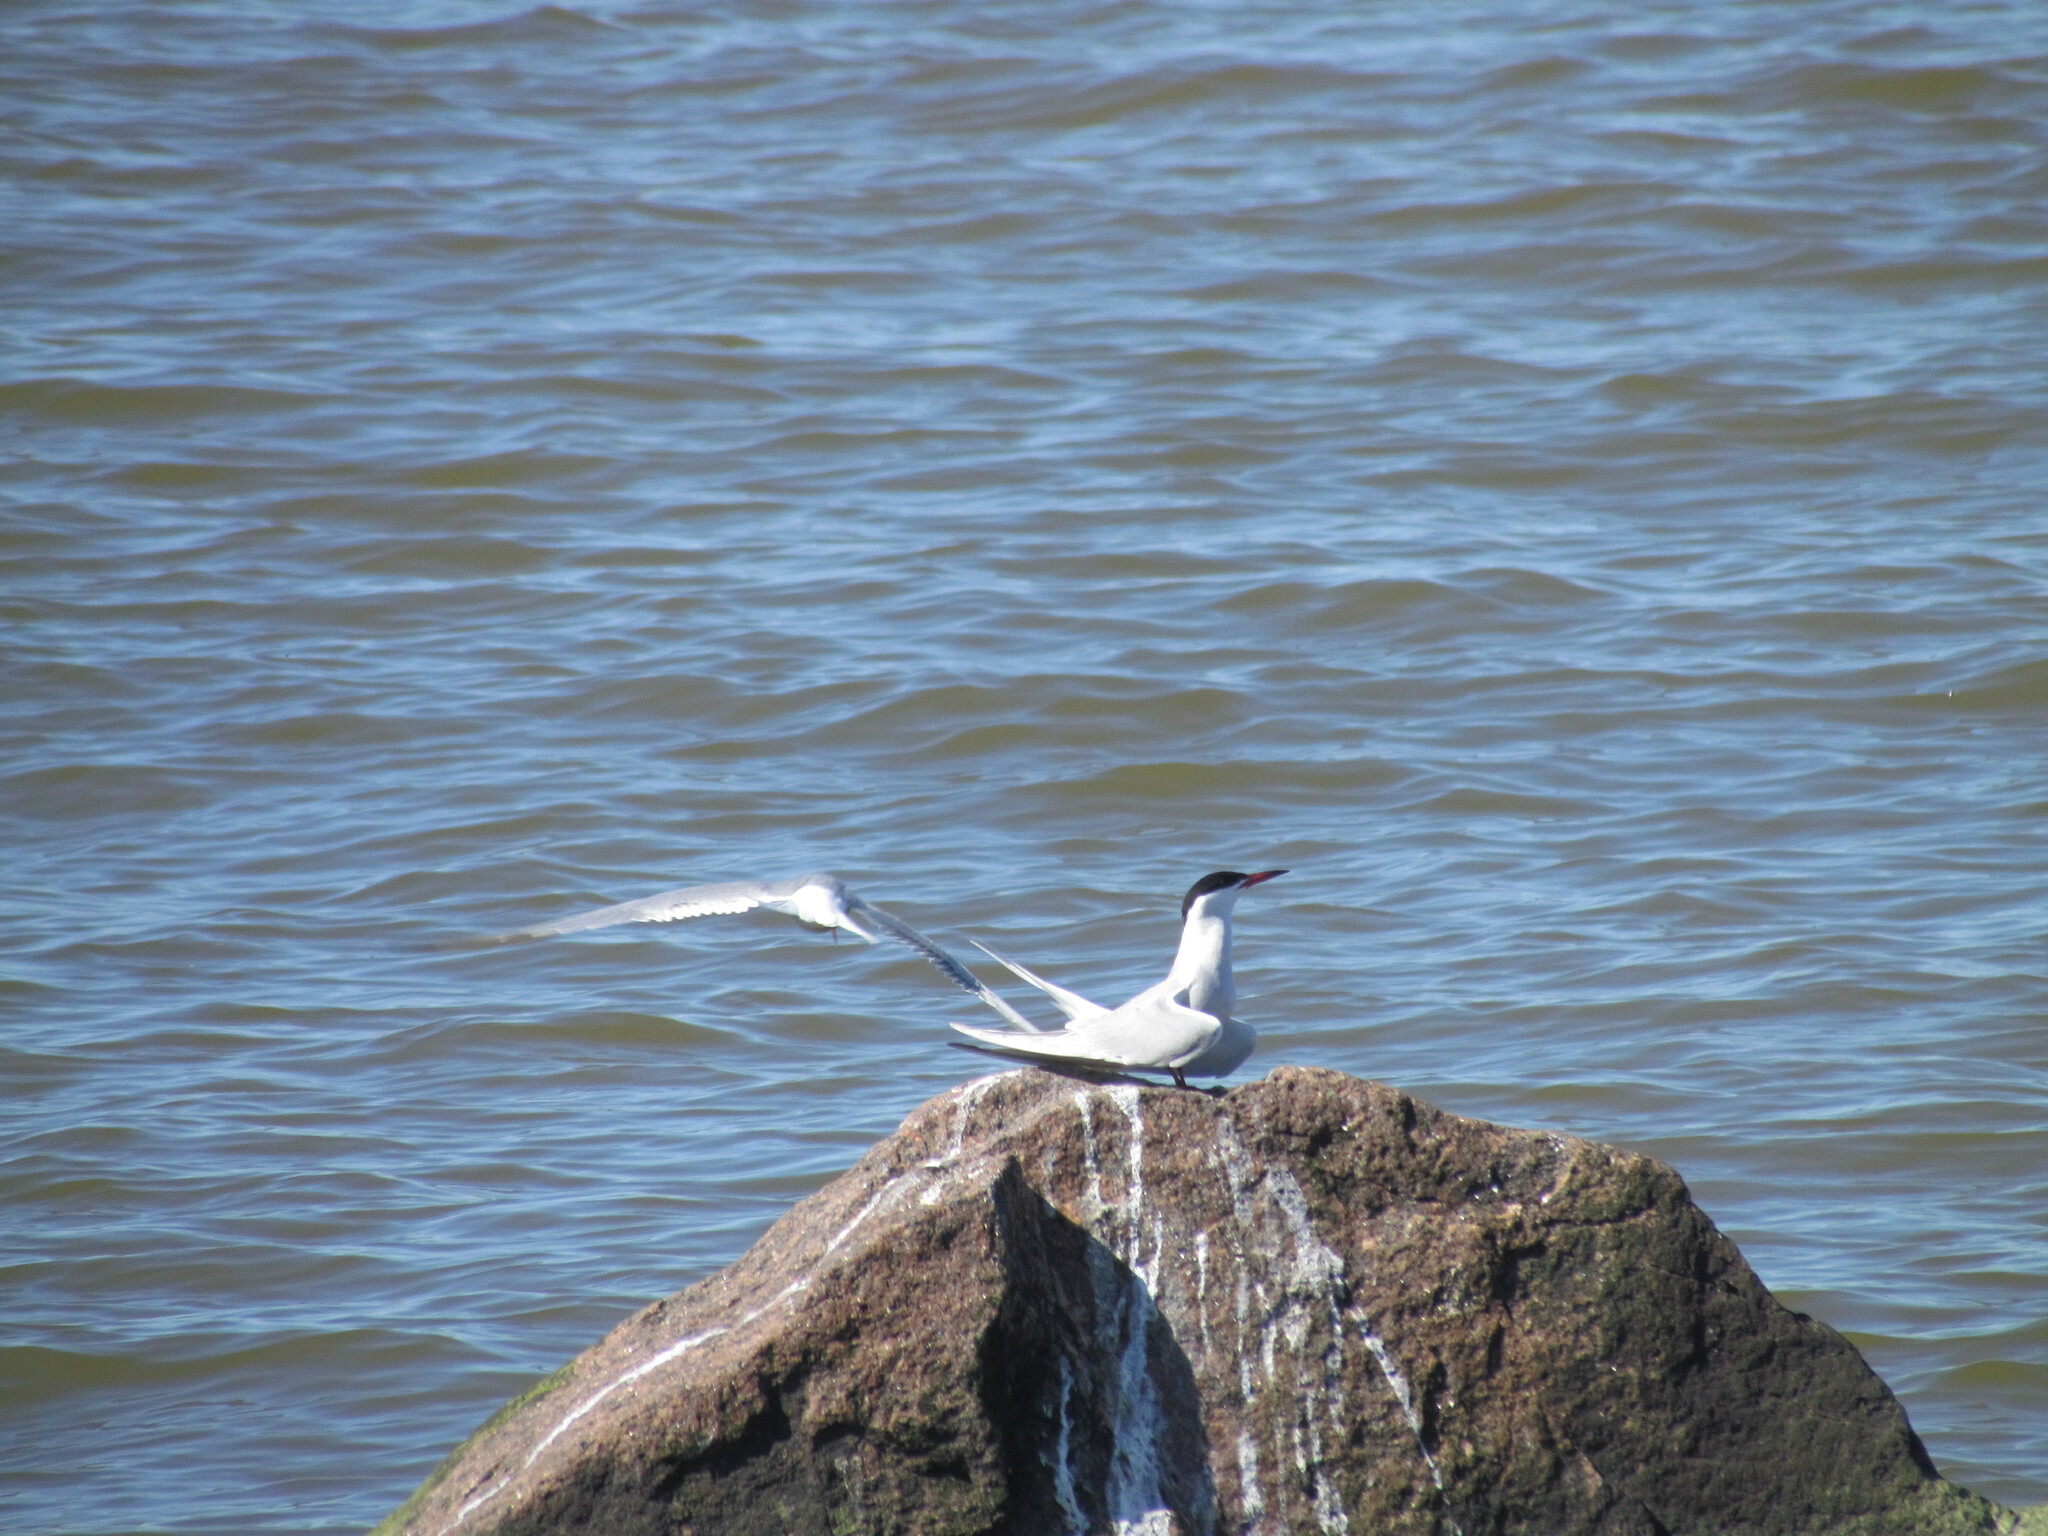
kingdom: Animalia
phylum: Chordata
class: Aves
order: Charadriiformes
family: Laridae
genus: Sterna
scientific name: Sterna hirundo
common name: Common tern
